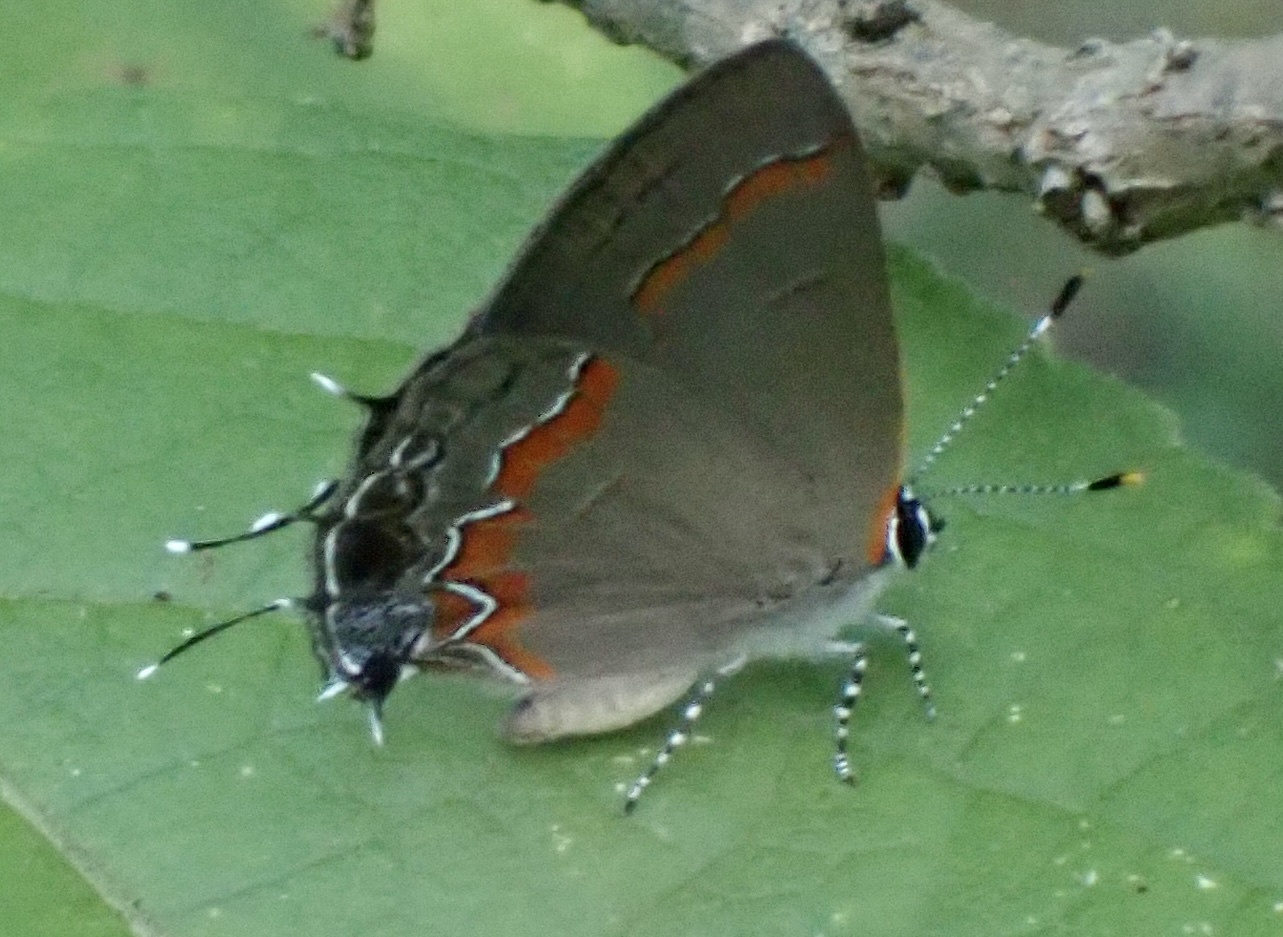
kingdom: Animalia
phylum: Arthropoda
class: Insecta
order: Lepidoptera
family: Lycaenidae
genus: Calycopis
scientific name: Calycopis cecrops
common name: Red-banded hairstreak
